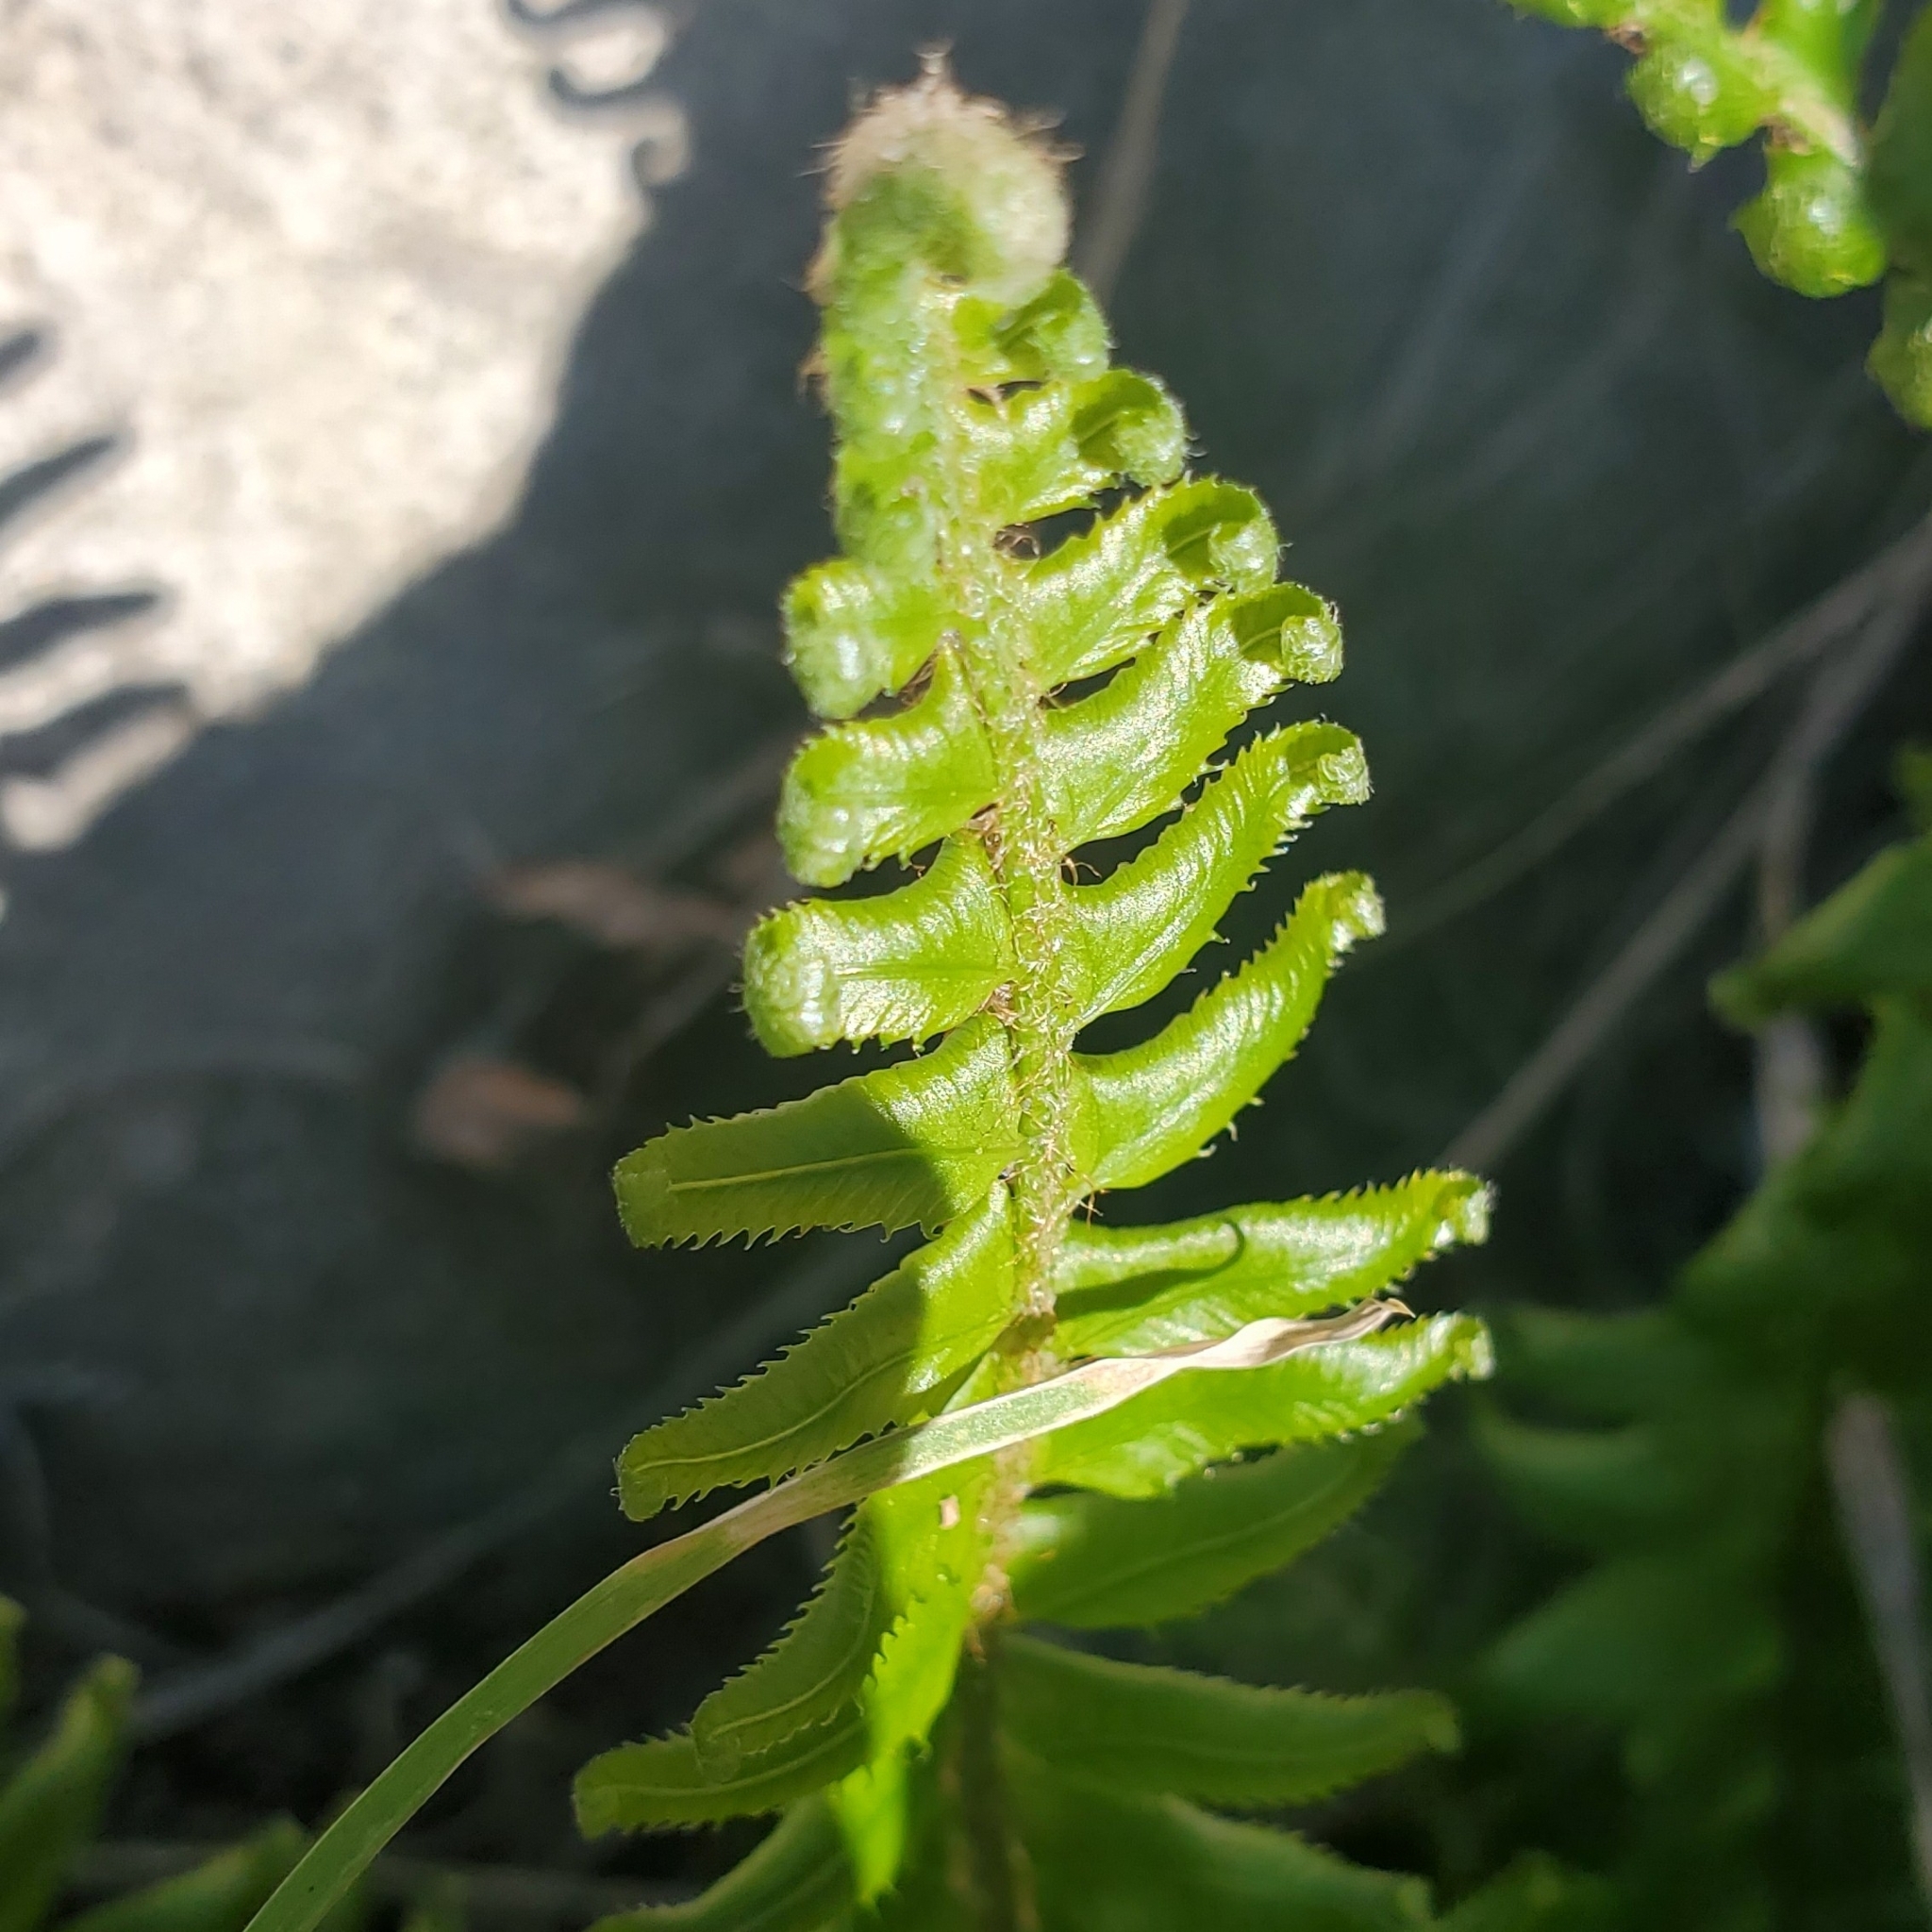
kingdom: Plantae
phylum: Tracheophyta
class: Polypodiopsida
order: Polypodiales
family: Dryopteridaceae
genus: Polystichum
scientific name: Polystichum munitum
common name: Western sword-fern
